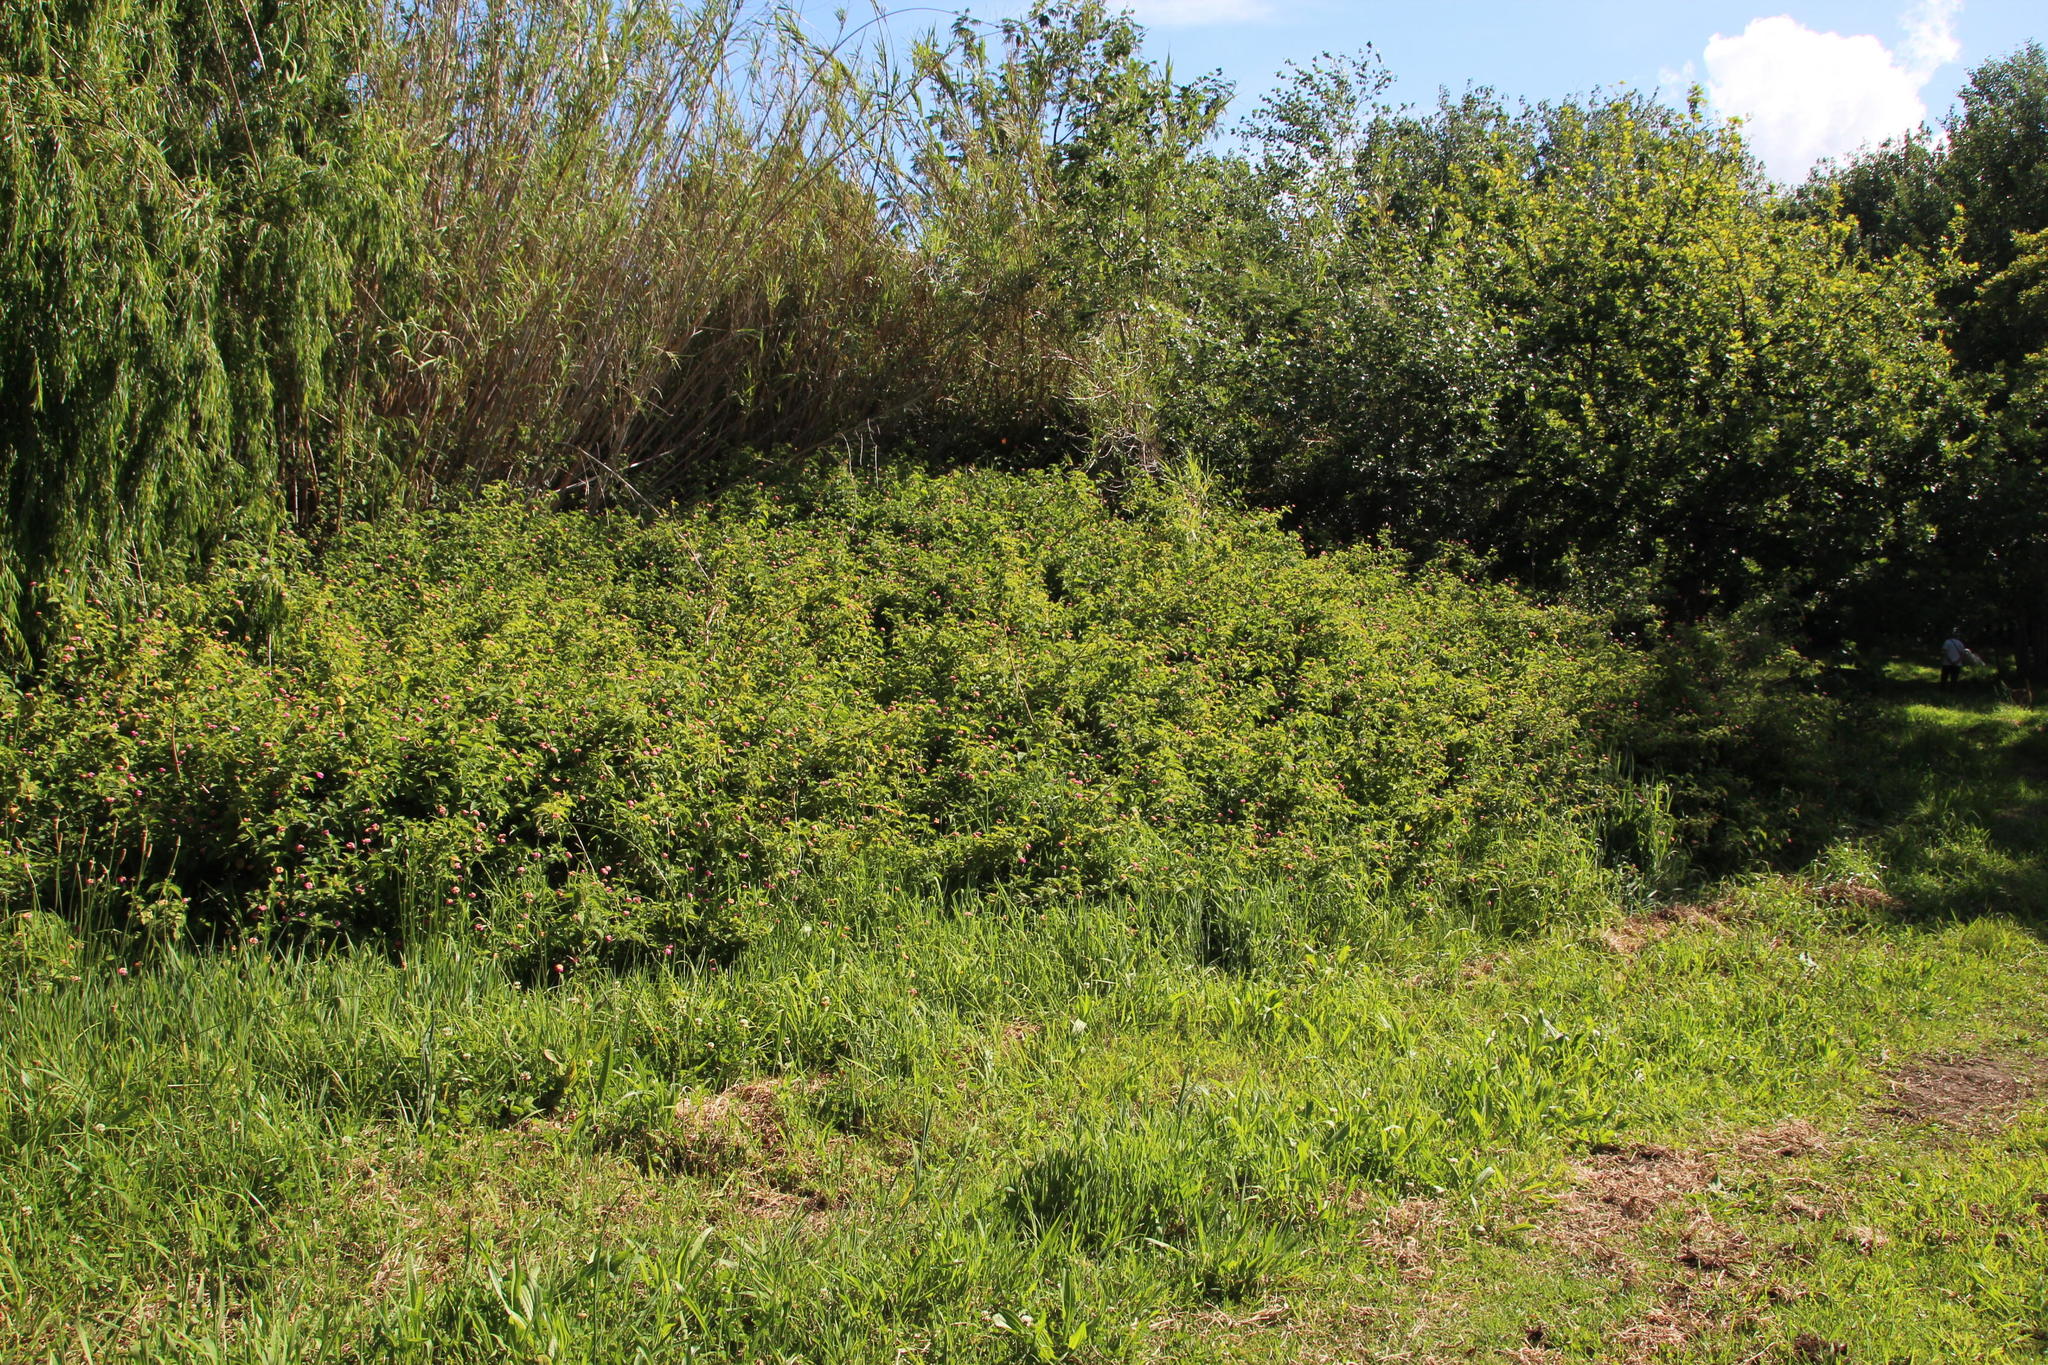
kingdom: Plantae
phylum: Tracheophyta
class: Magnoliopsida
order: Lamiales
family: Verbenaceae
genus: Lantana
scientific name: Lantana camara
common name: Lantana
